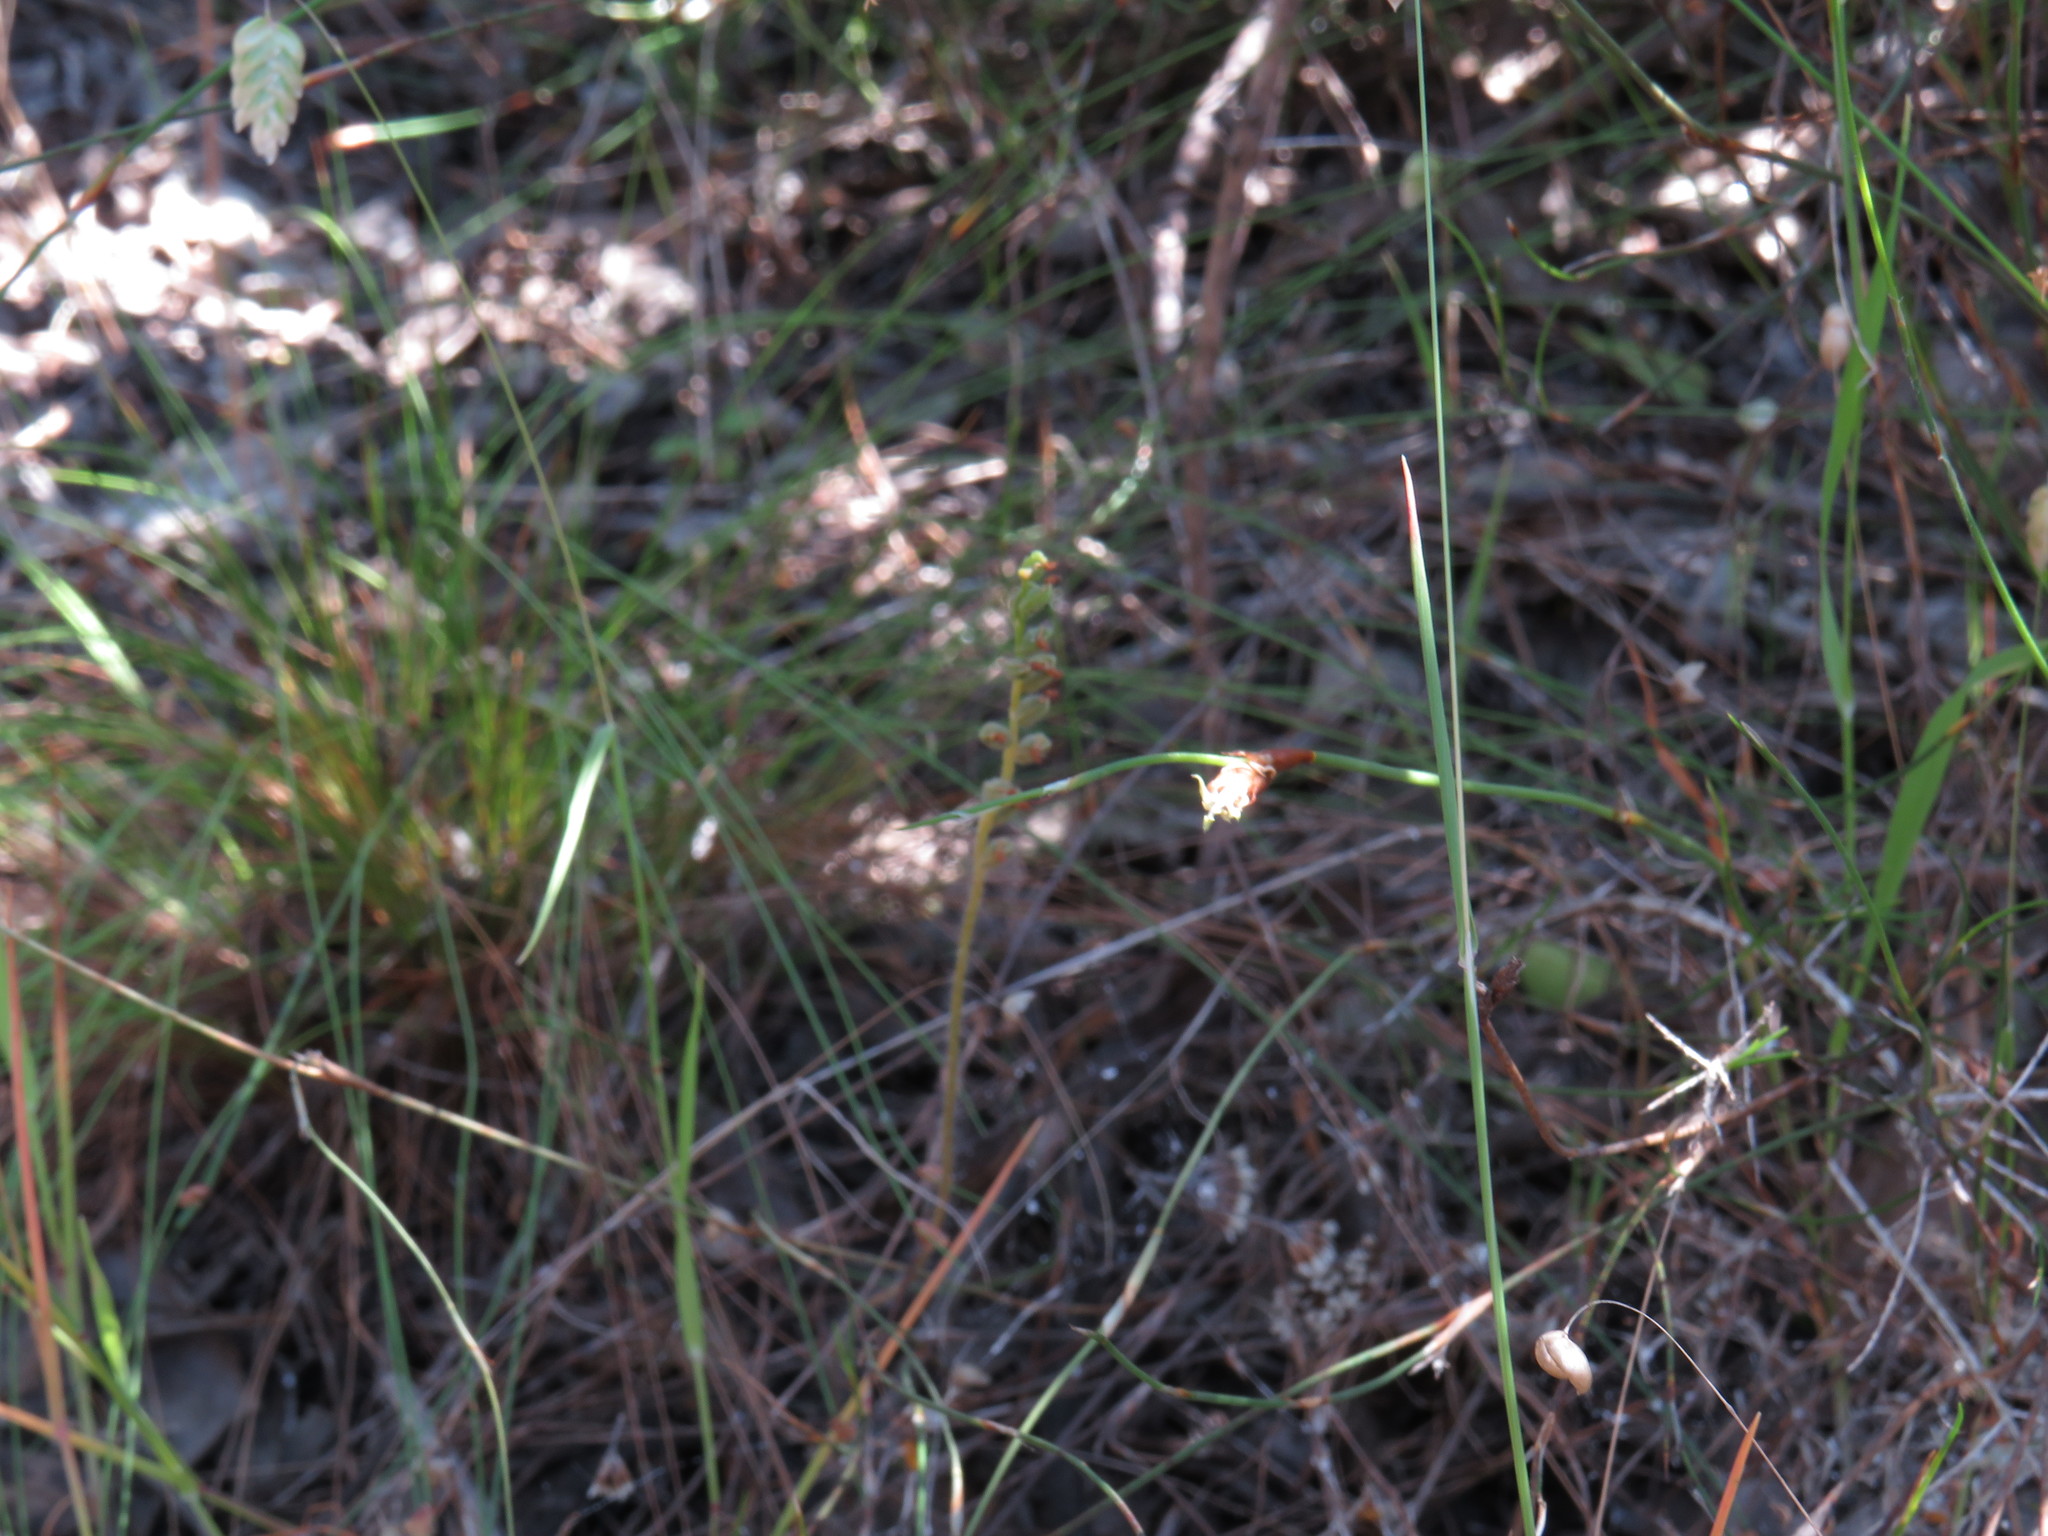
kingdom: Plantae
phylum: Tracheophyta
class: Liliopsida
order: Asparagales
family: Orchidaceae
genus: Holothrix
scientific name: Holothrix villosa
